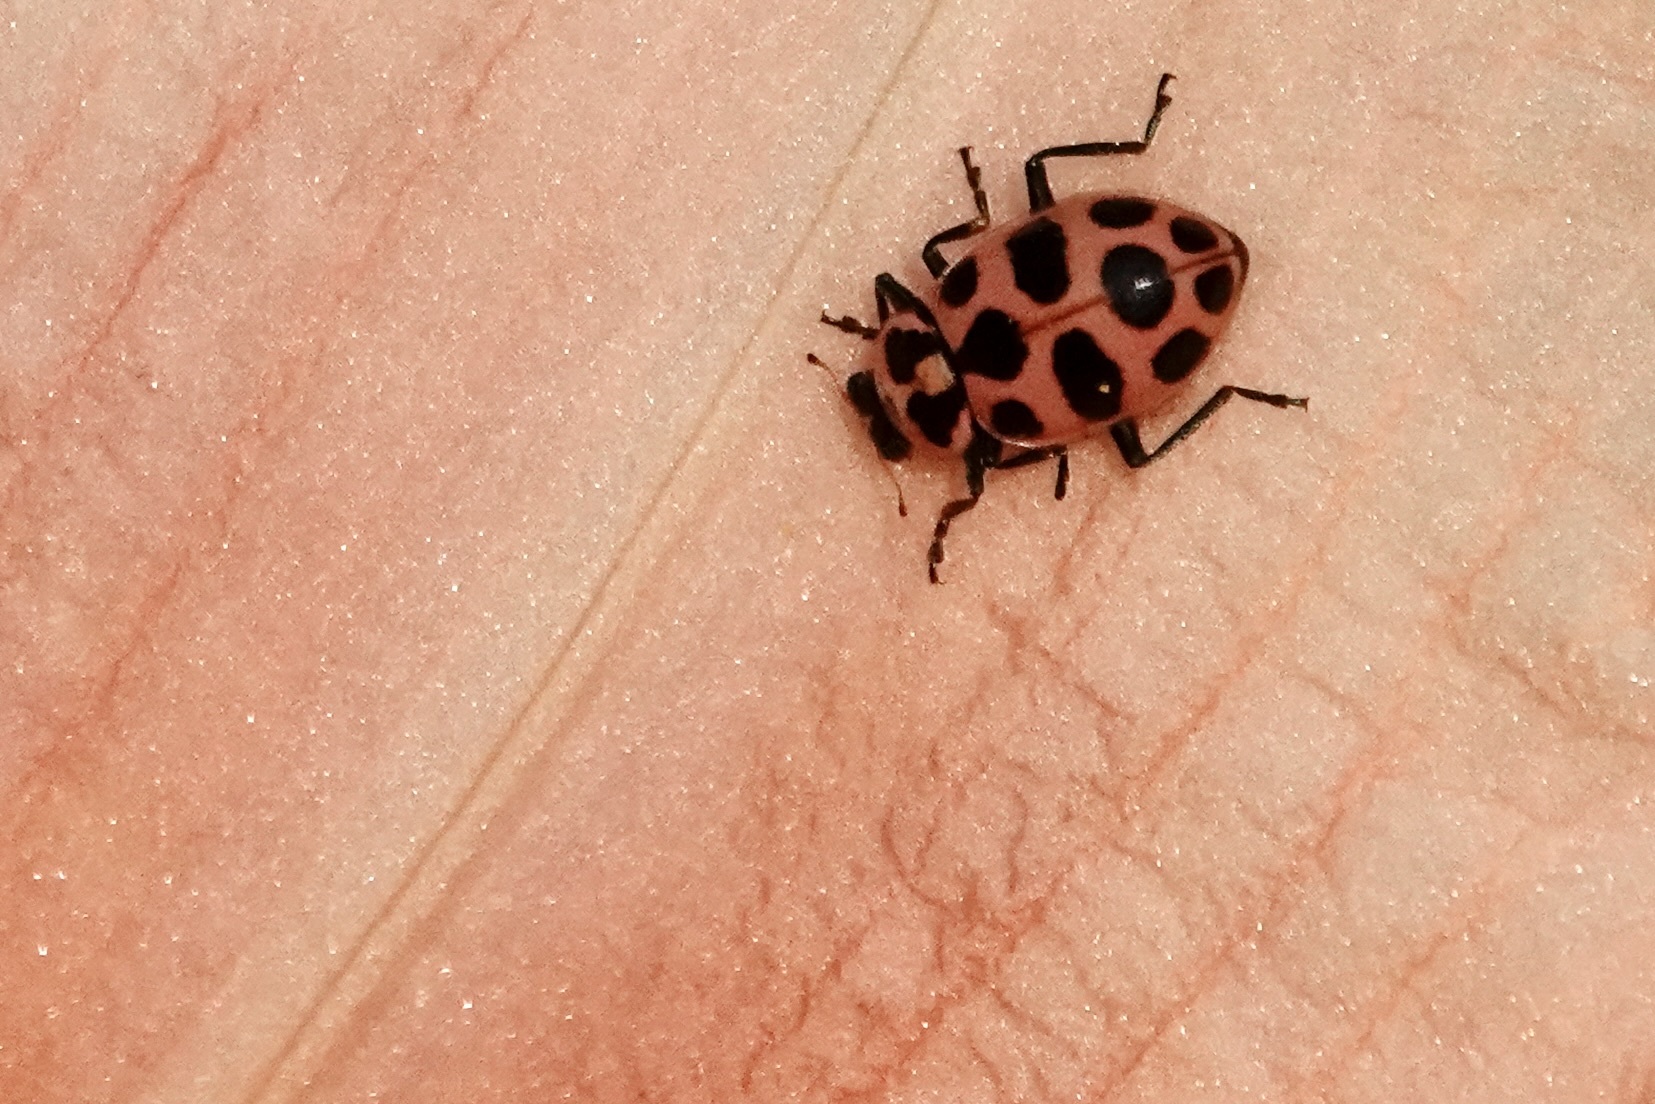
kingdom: Animalia
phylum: Arthropoda
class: Insecta
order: Coleoptera
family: Coccinellidae
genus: Coleomegilla
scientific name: Coleomegilla maculata
